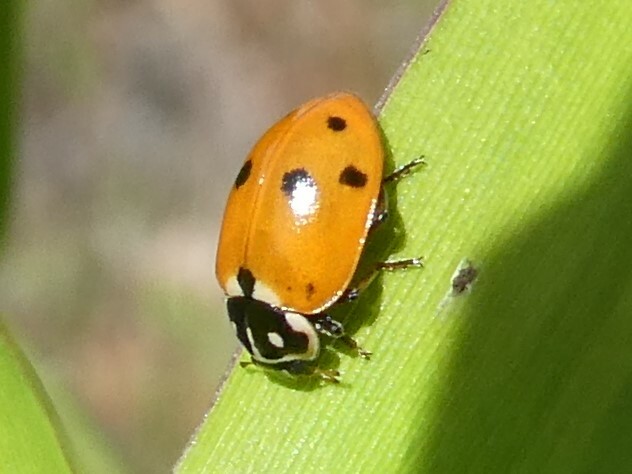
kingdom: Animalia
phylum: Arthropoda
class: Insecta
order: Coleoptera
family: Coccinellidae
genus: Hippodamia
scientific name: Hippodamia variegata
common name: Ladybird beetle
